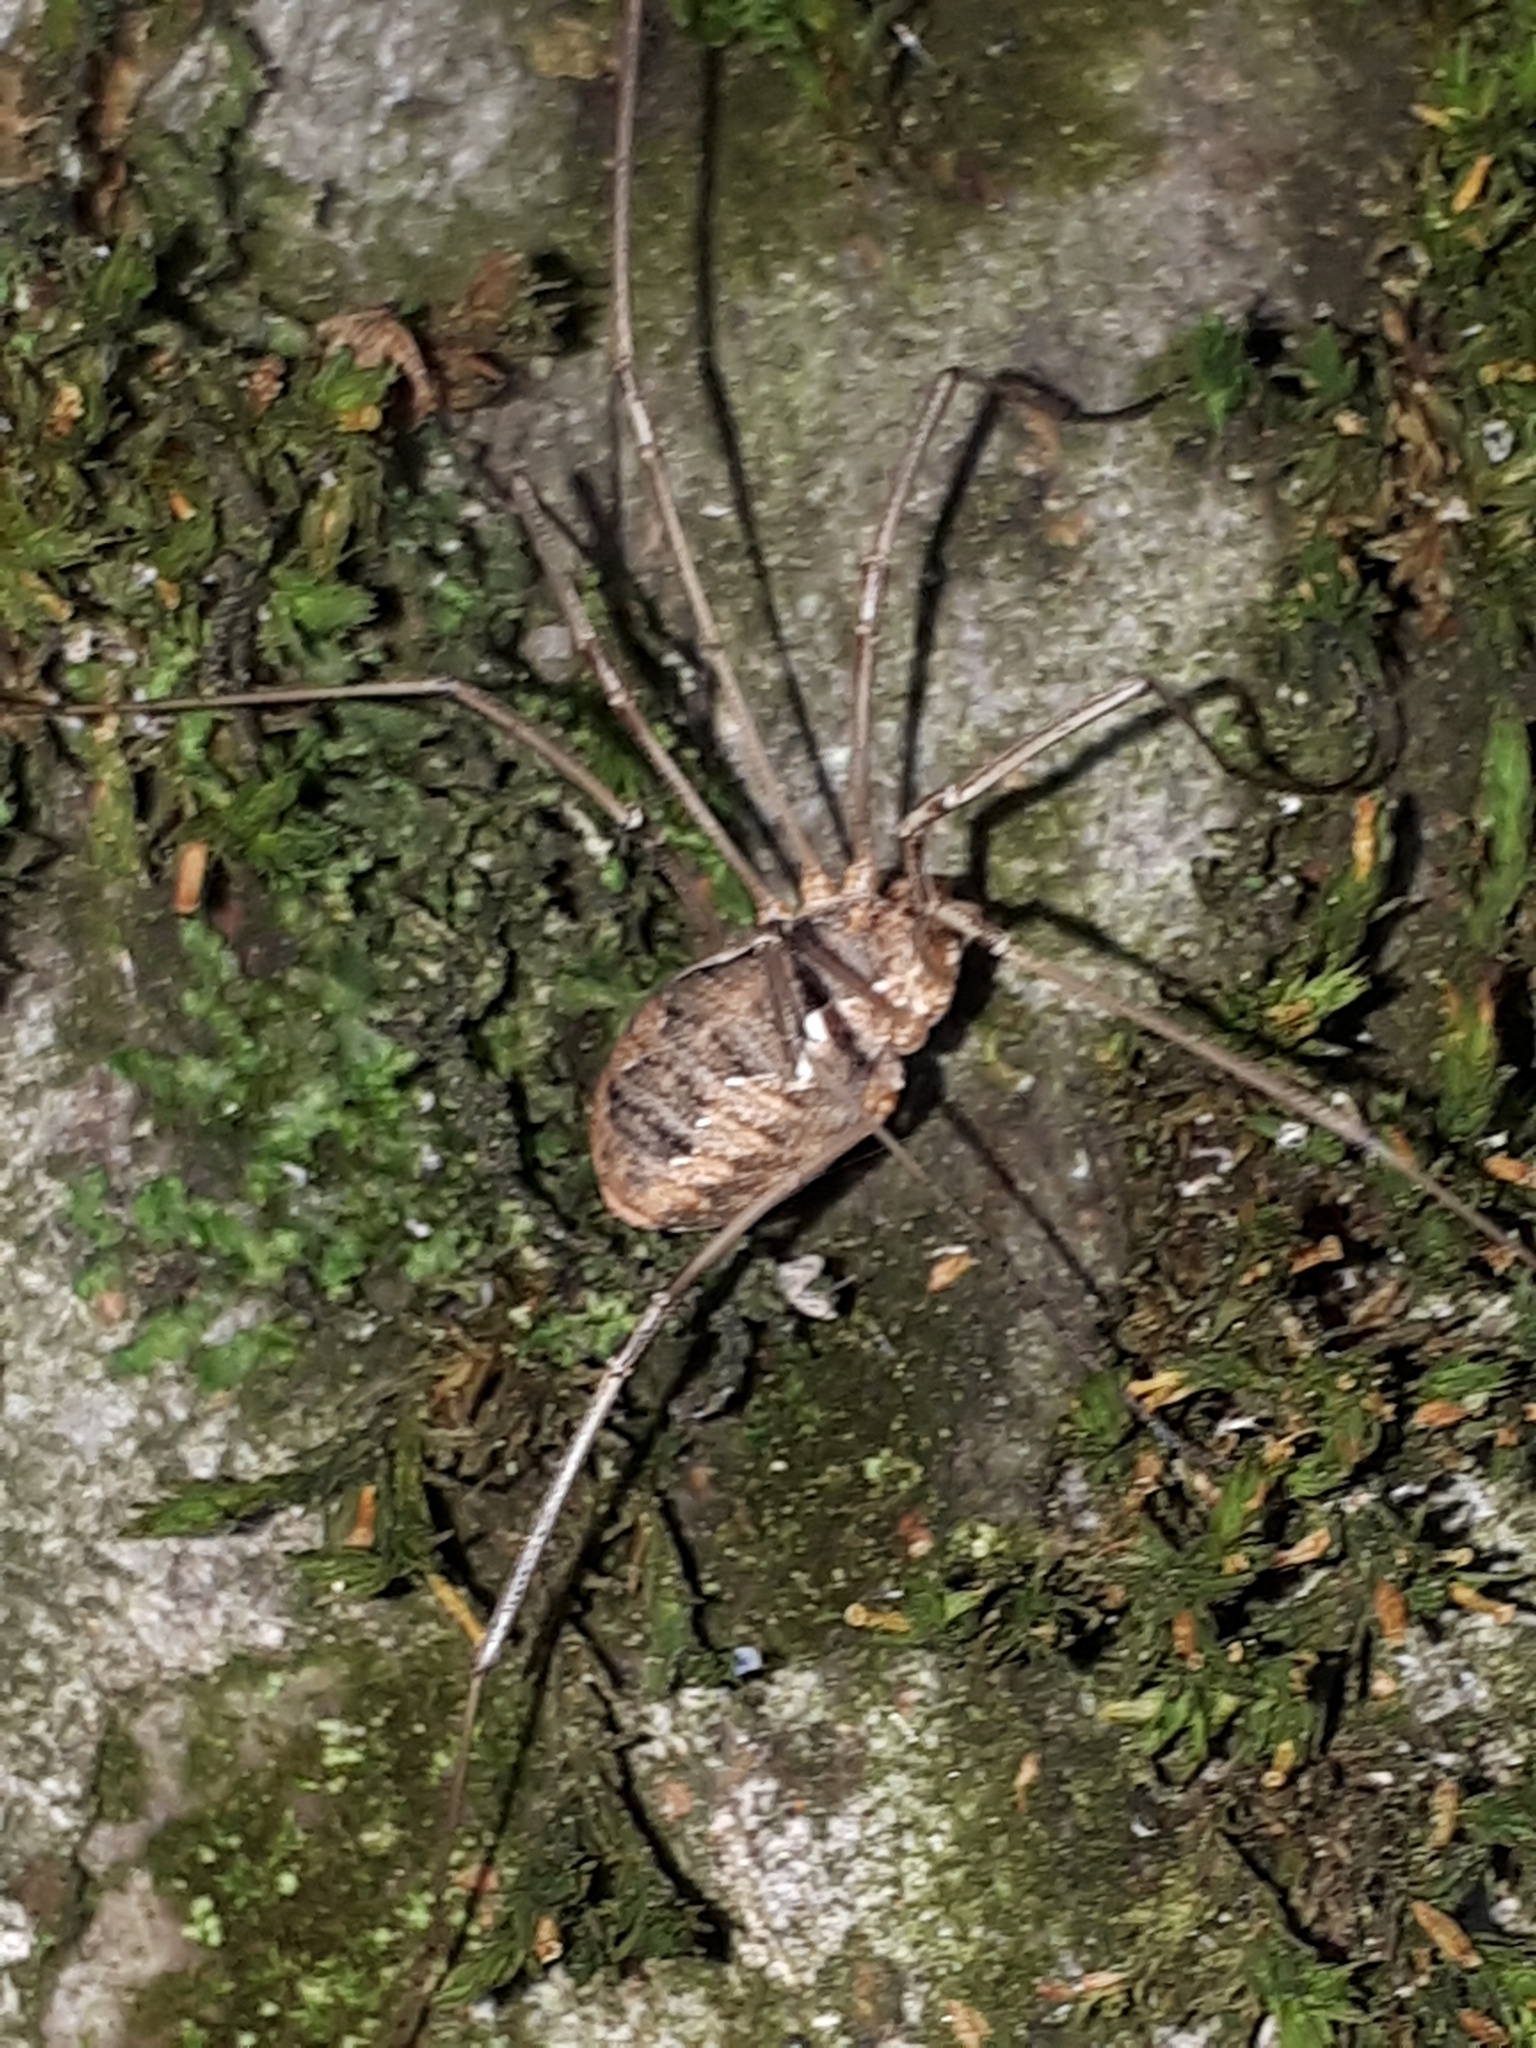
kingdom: Animalia
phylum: Arthropoda
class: Arachnida
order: Opiliones
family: Phalangiidae
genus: Phalangium
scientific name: Phalangium opilio
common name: Daddy longleg
